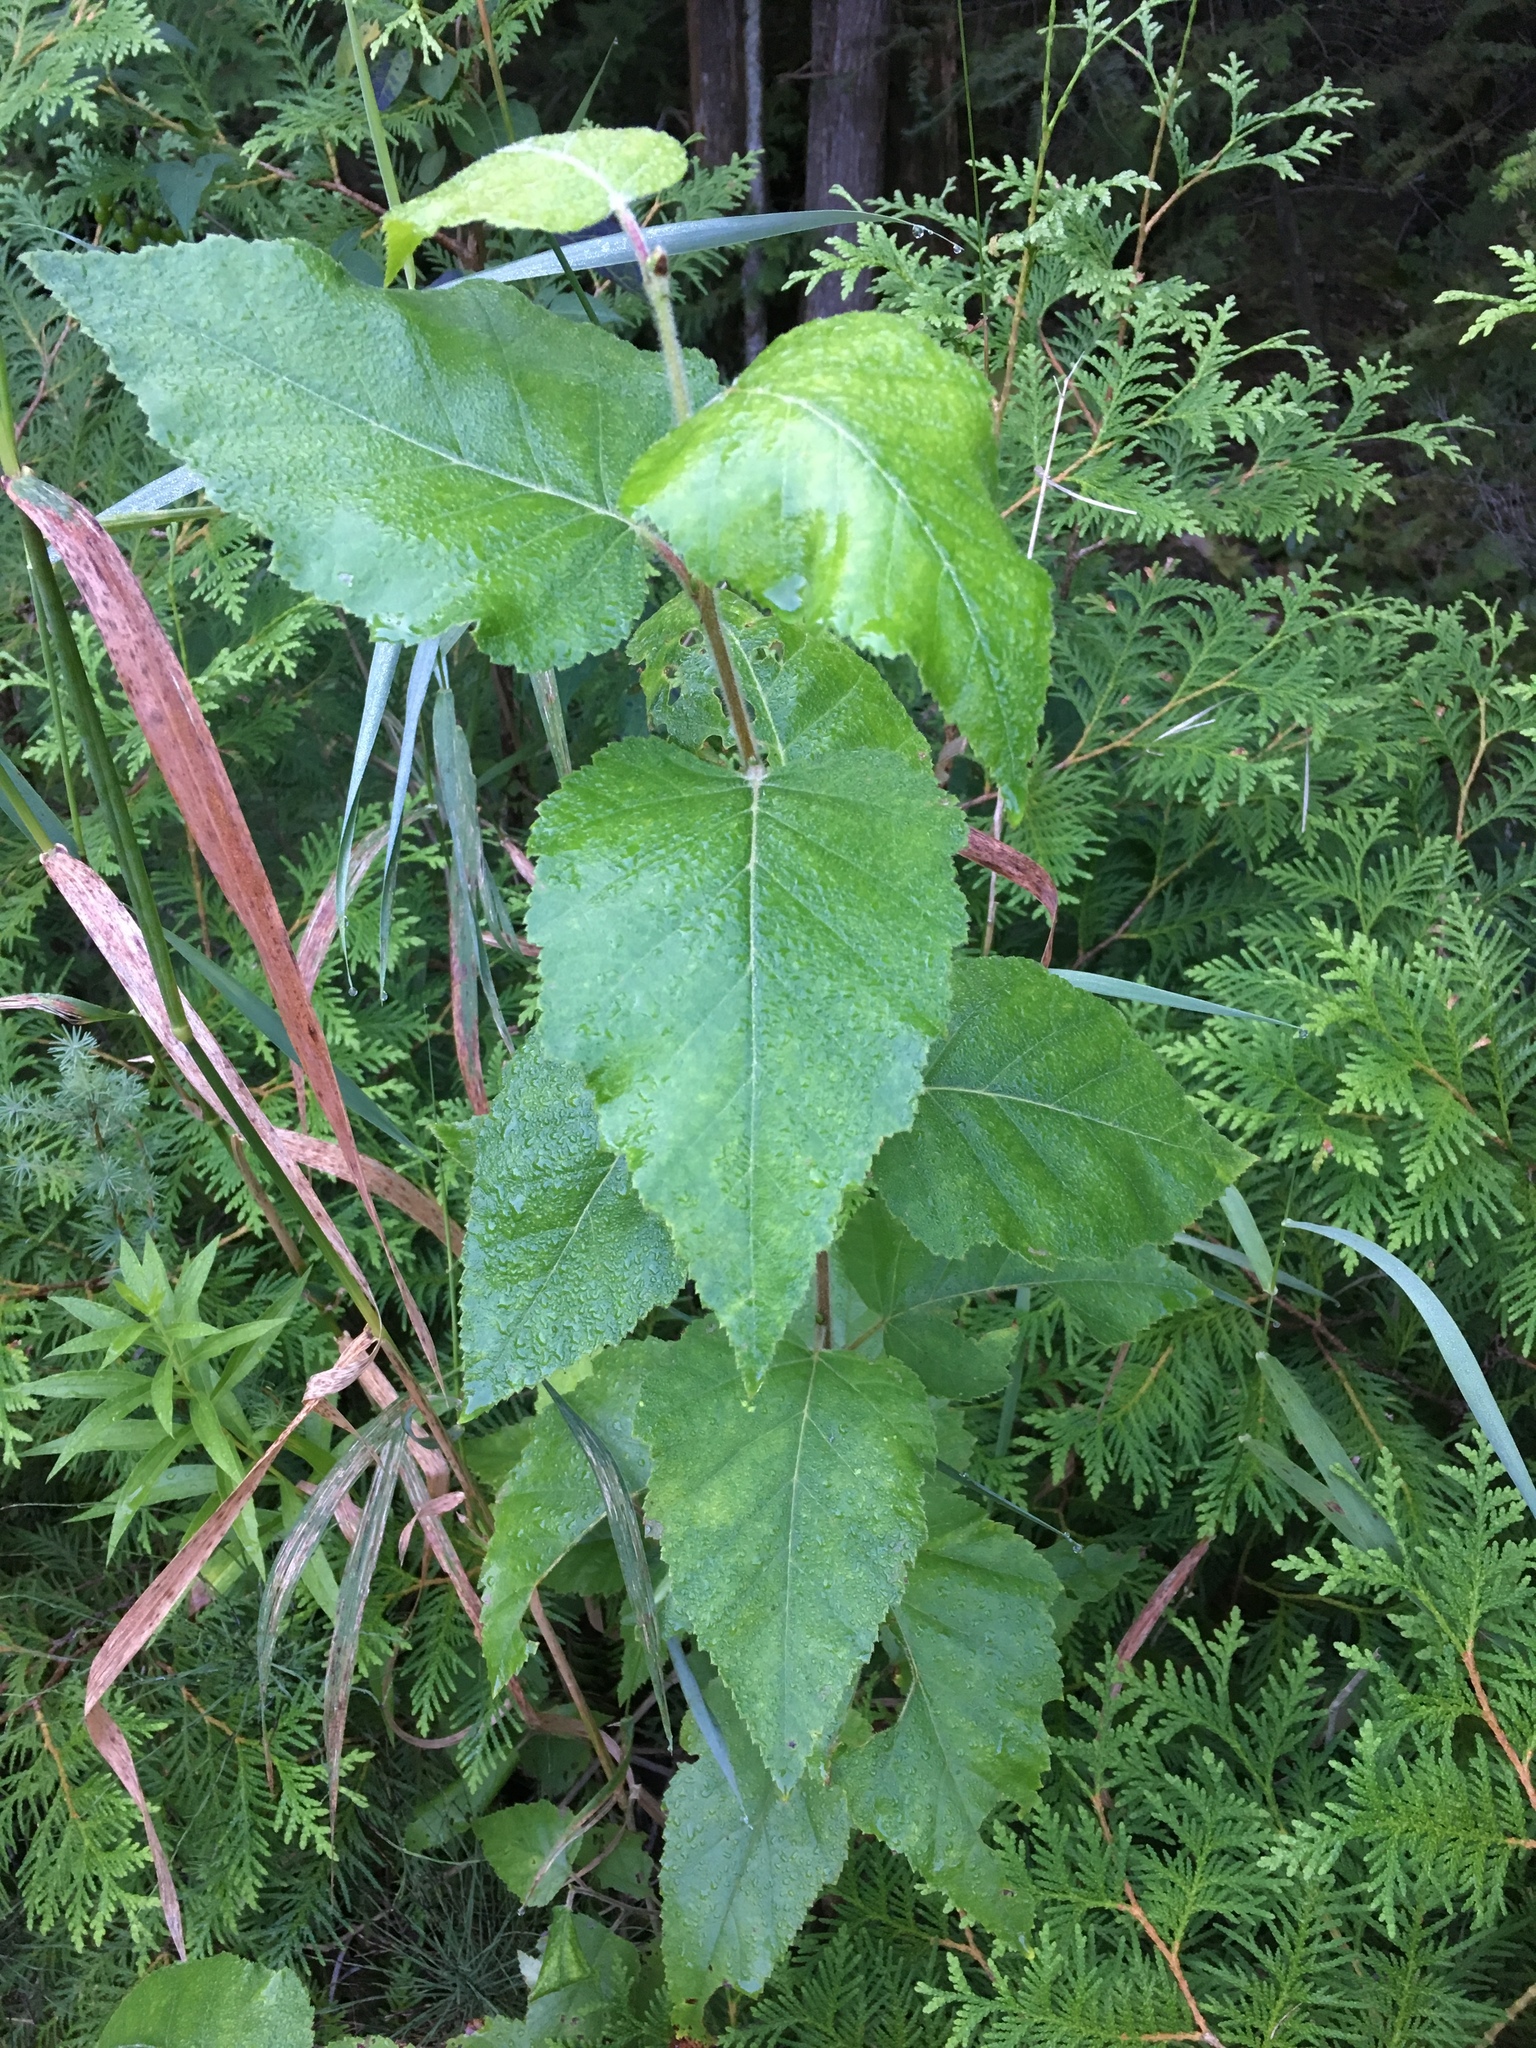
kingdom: Plantae
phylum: Tracheophyta
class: Magnoliopsida
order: Fagales
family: Betulaceae
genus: Betula
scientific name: Betula papyrifera
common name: Paper birch
